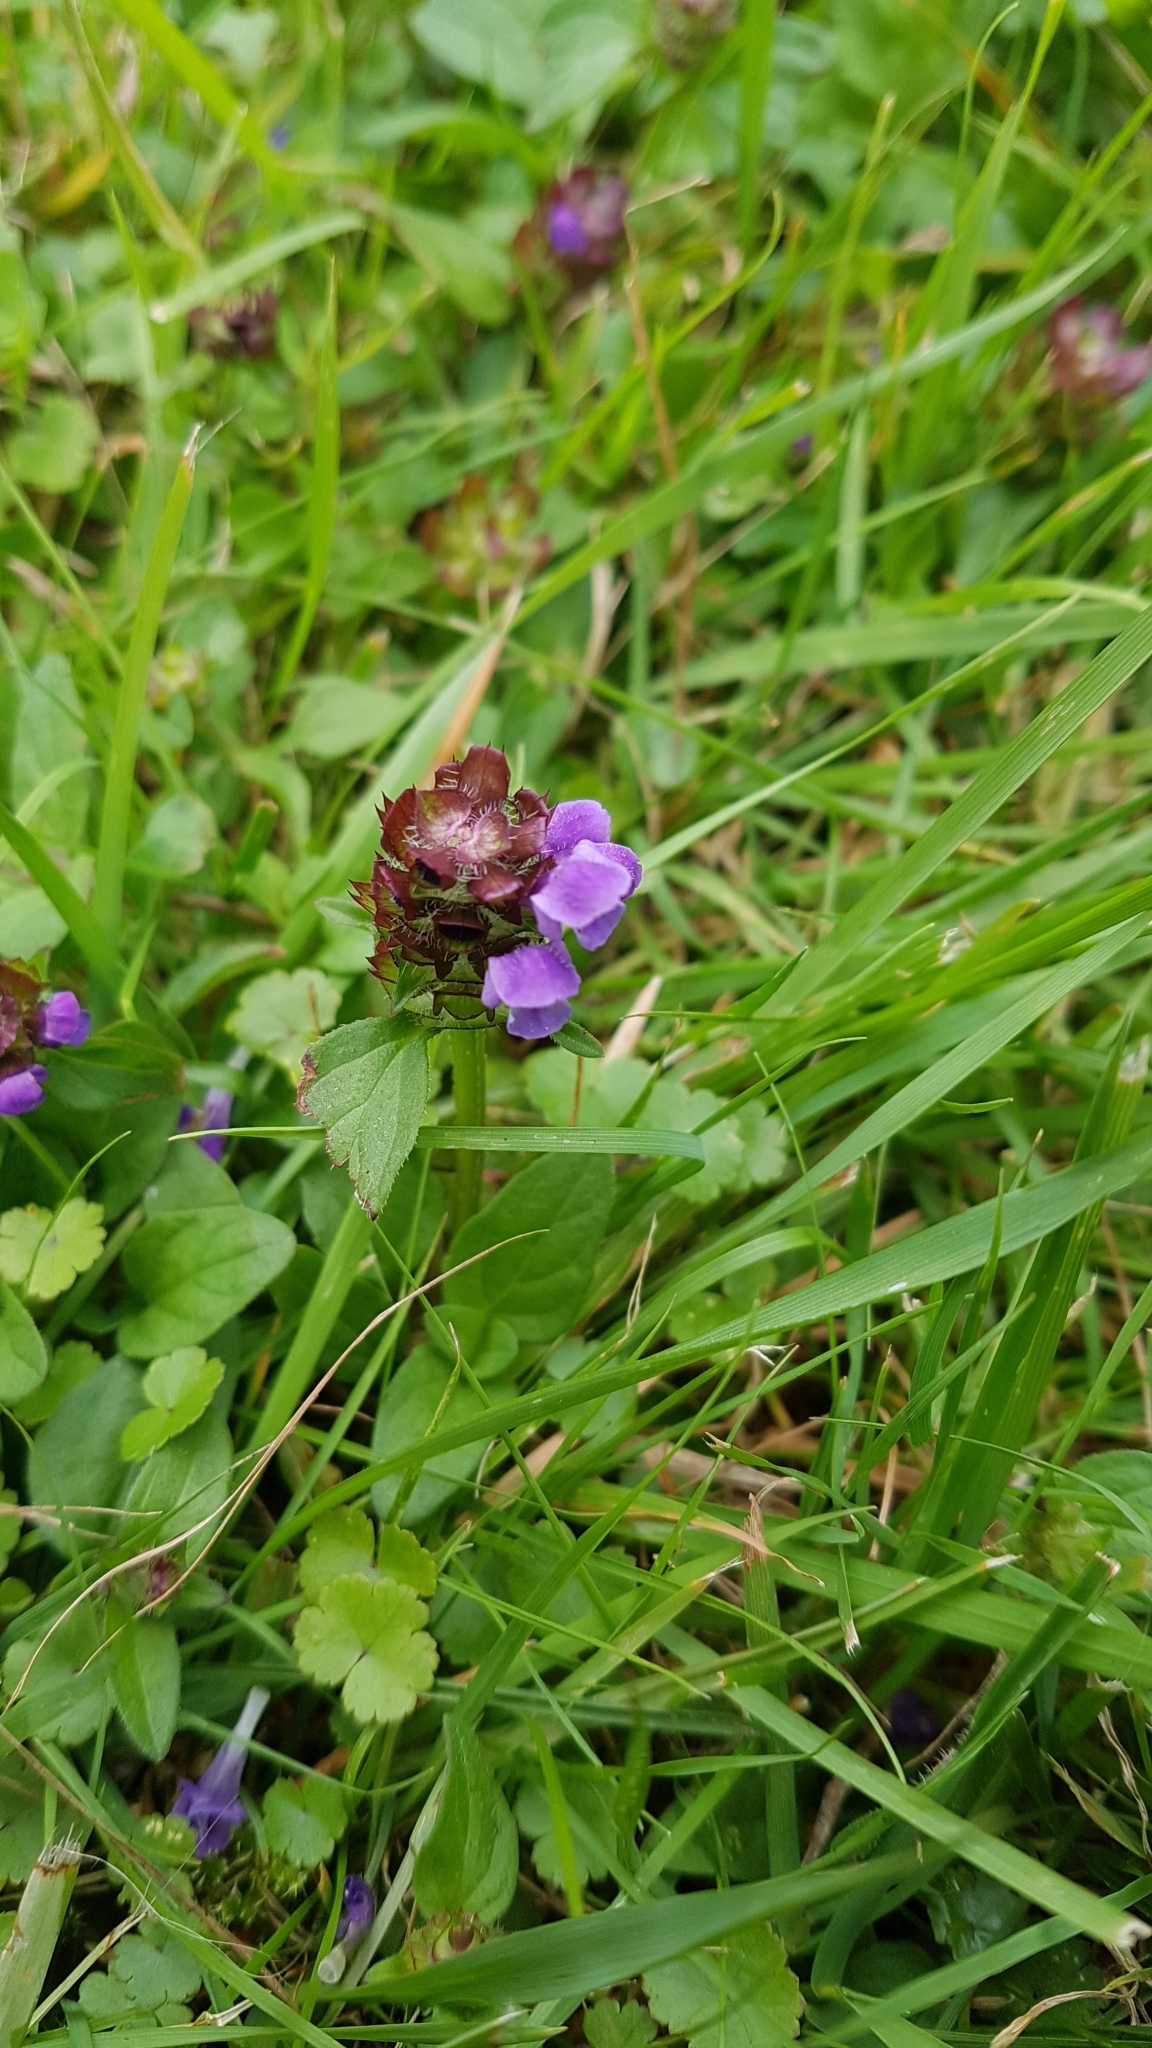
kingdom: Plantae
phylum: Tracheophyta
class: Magnoliopsida
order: Lamiales
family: Lamiaceae
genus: Prunella
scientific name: Prunella vulgaris
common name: Heal-all
